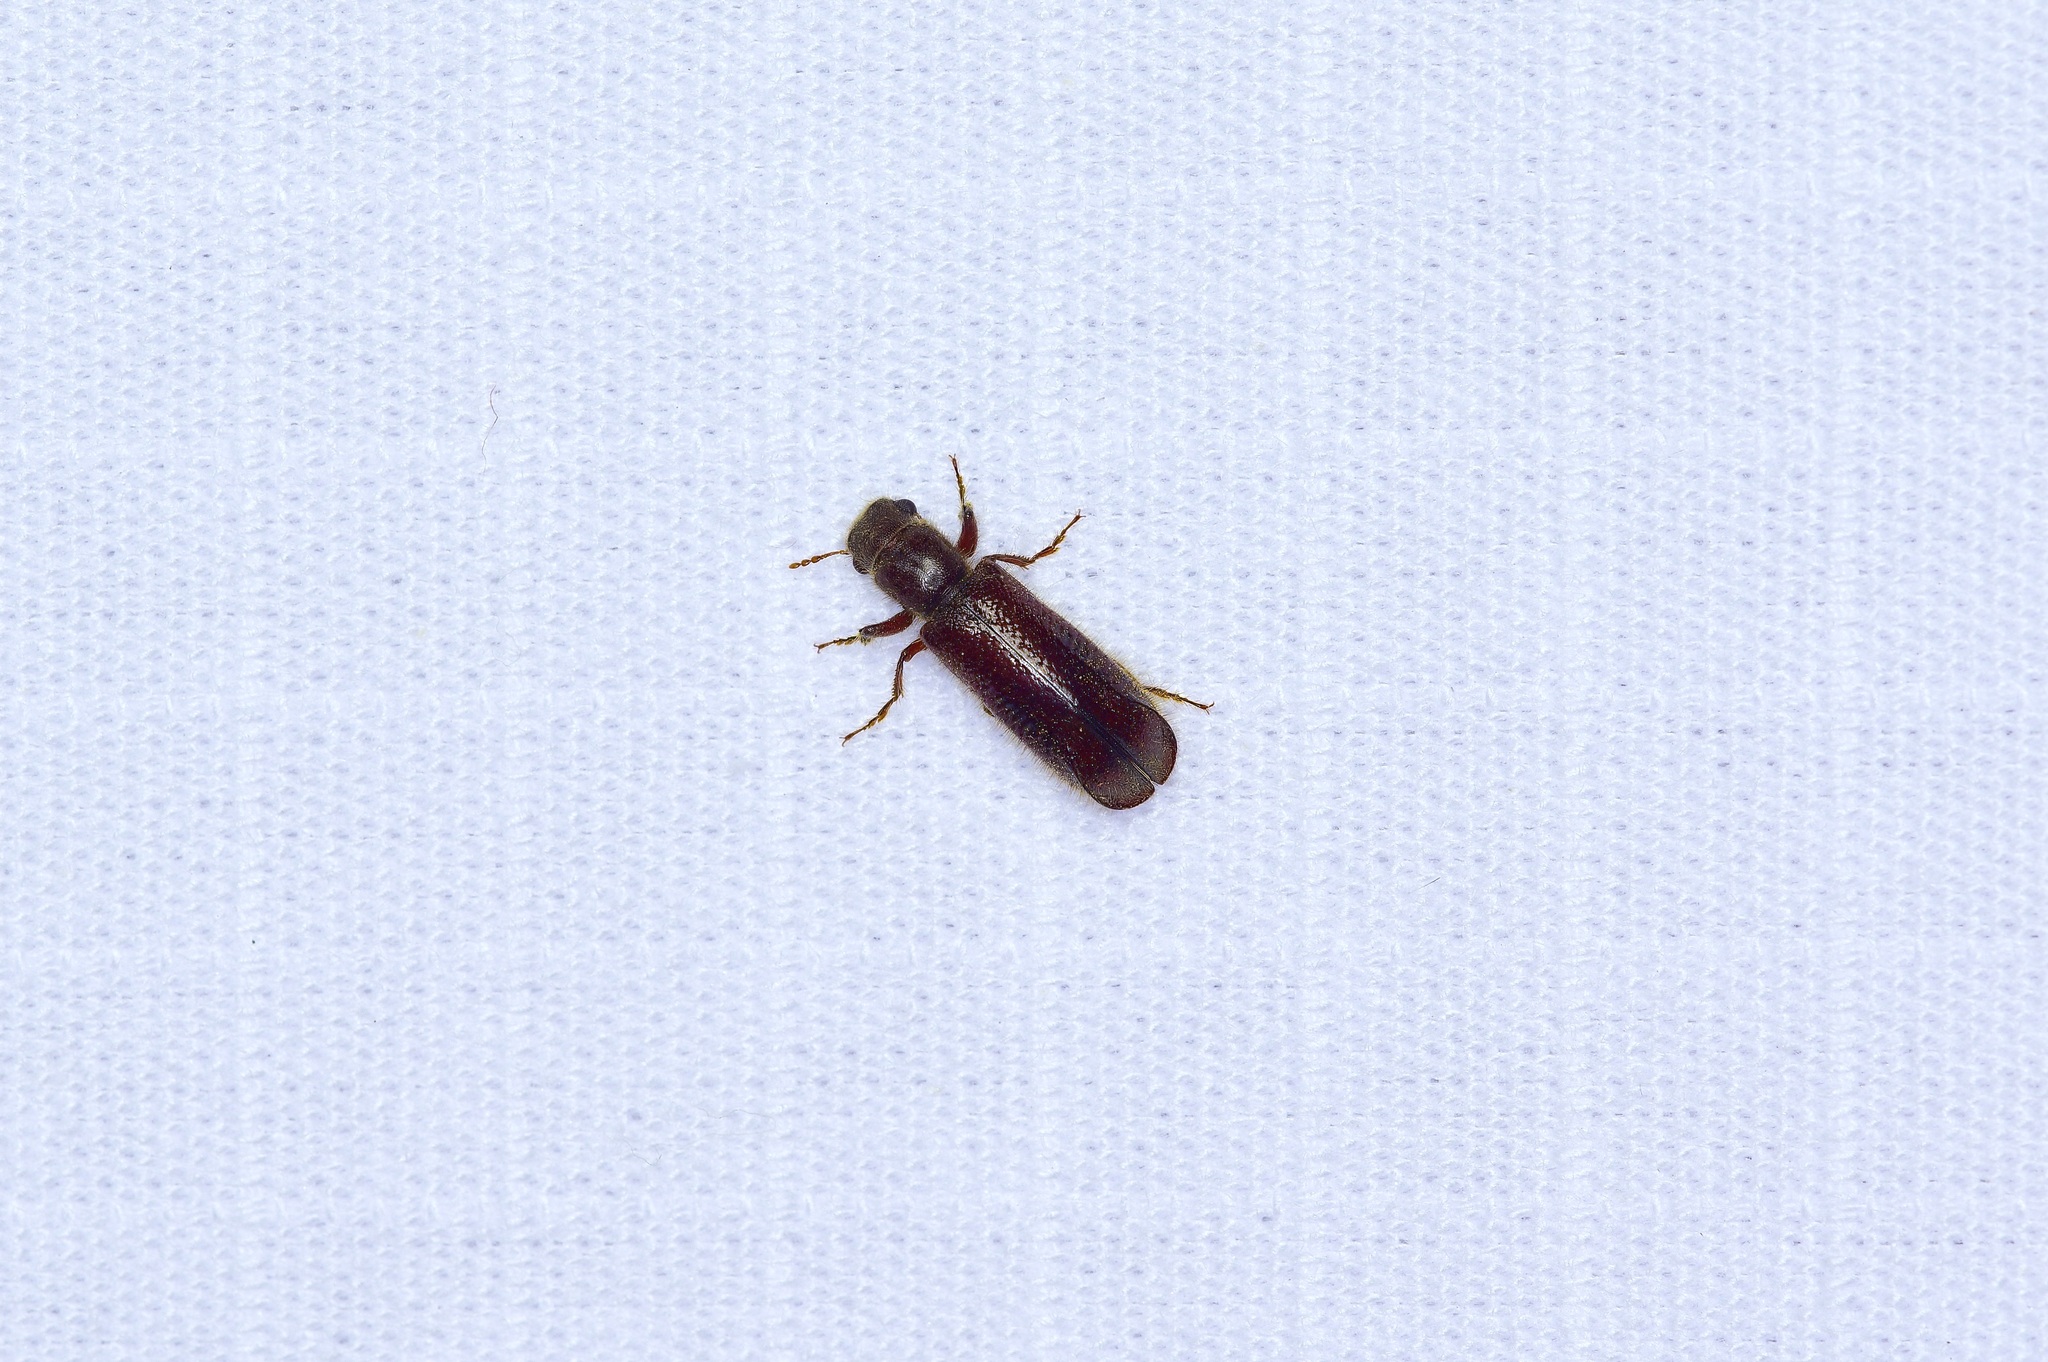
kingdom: Animalia
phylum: Arthropoda
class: Insecta
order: Coleoptera
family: Bostrichidae
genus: Melalgus
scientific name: Melalgus plicatus
